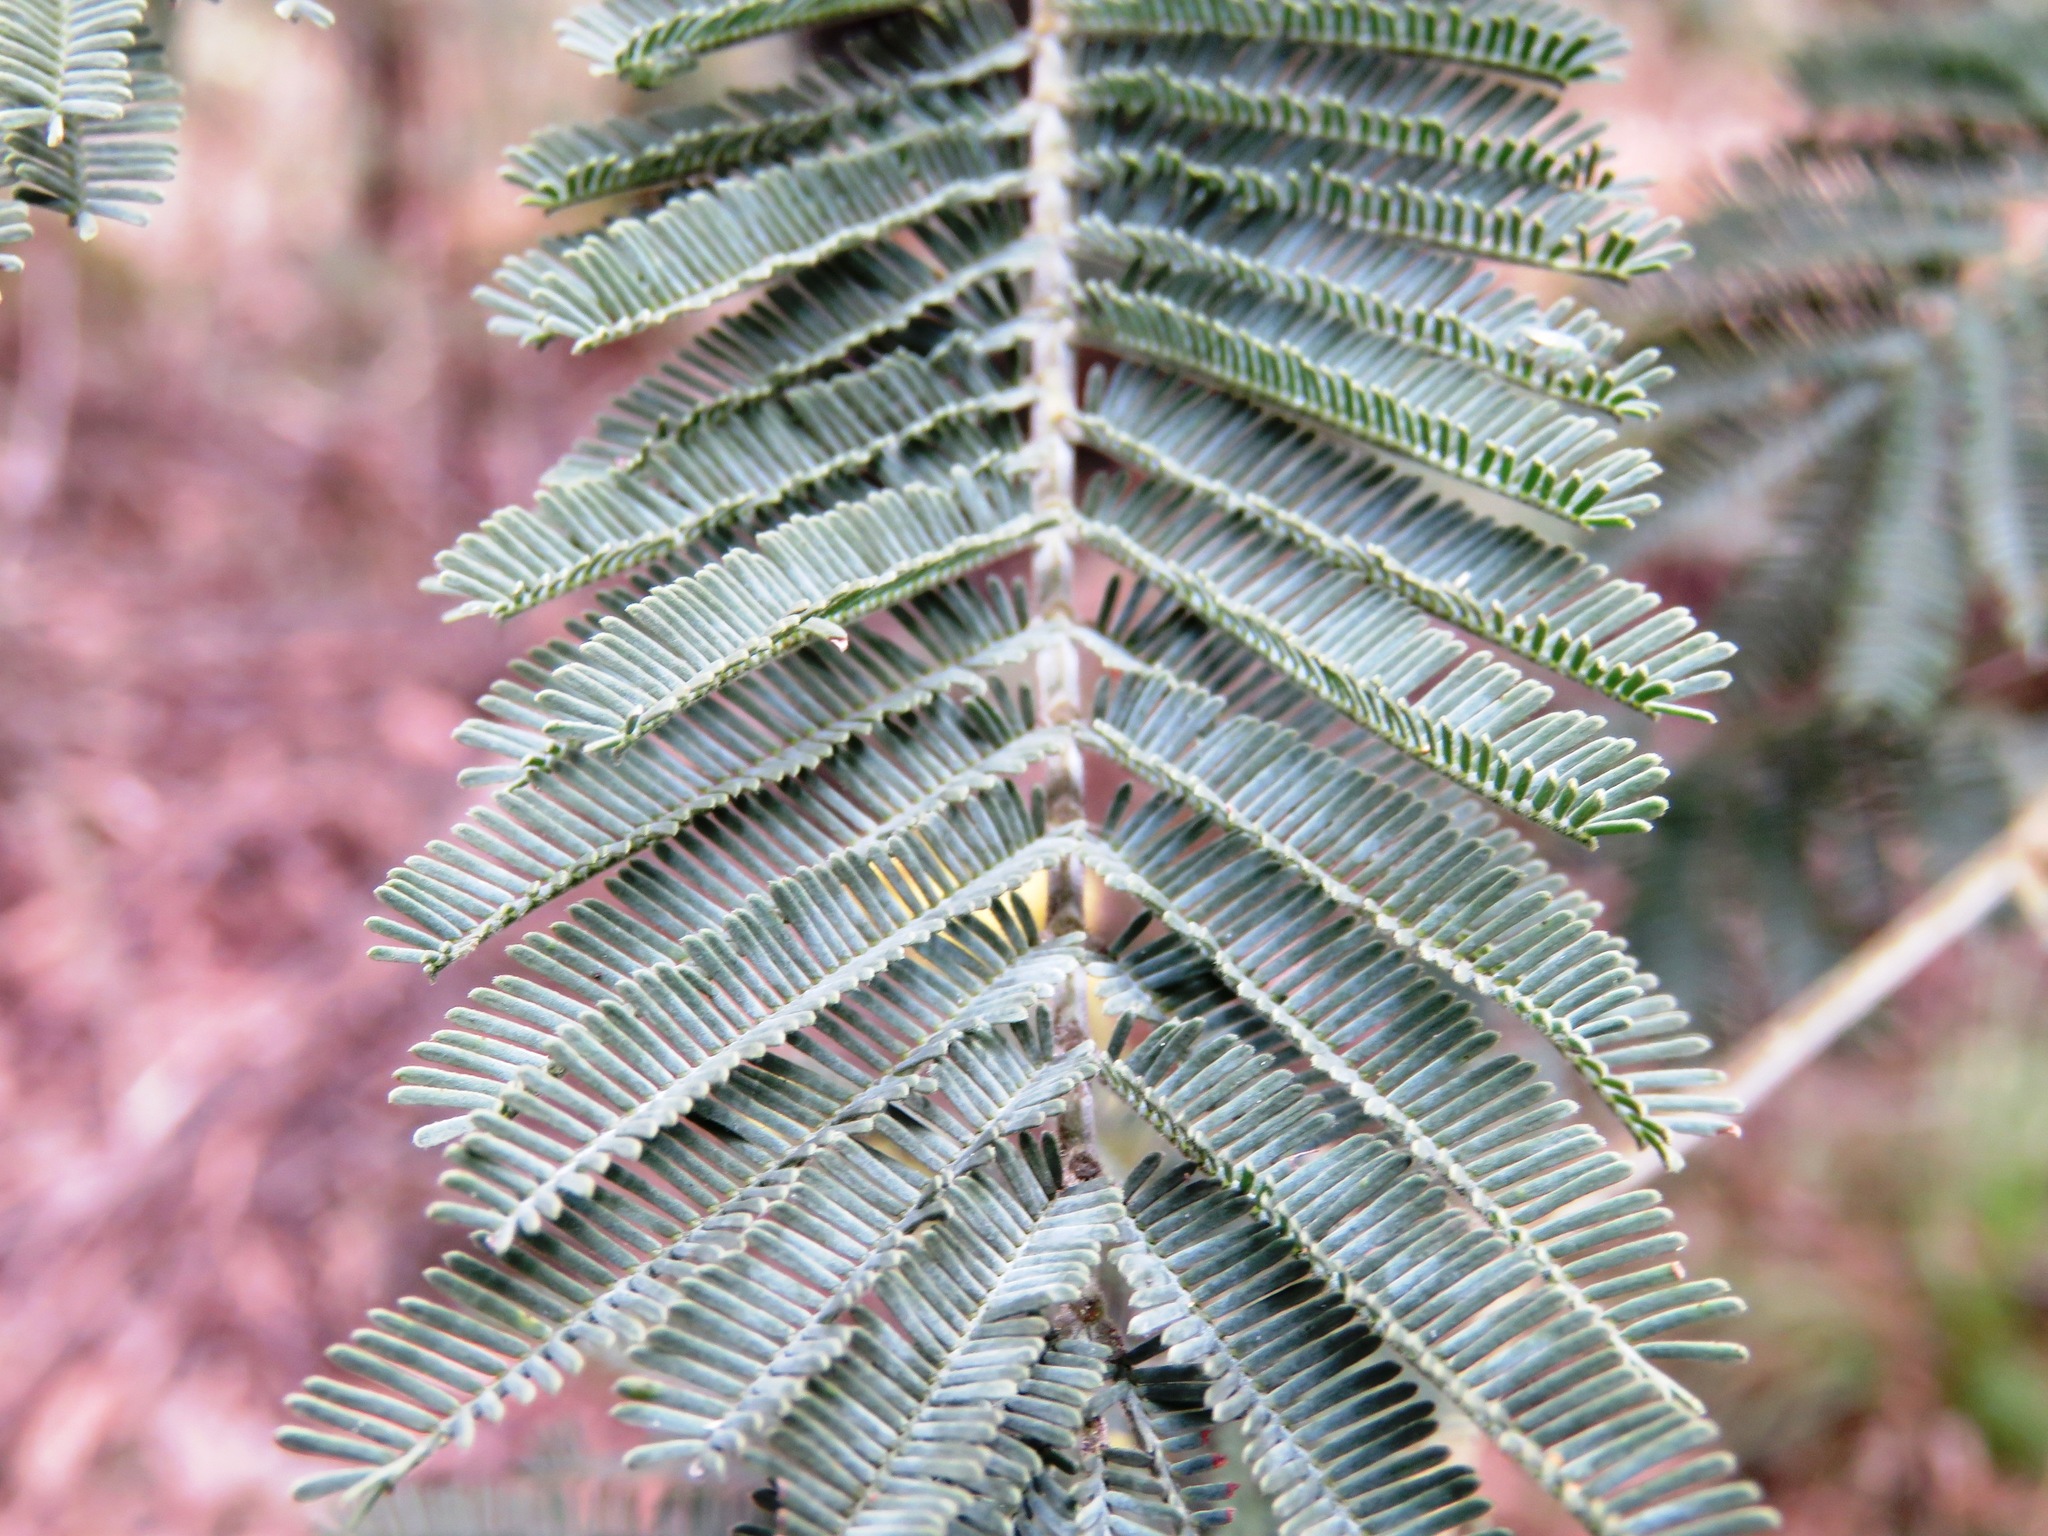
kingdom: Plantae
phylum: Tracheophyta
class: Magnoliopsida
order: Fabales
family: Fabaceae
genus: Acacia
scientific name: Acacia dealbata
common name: Silver wattle
